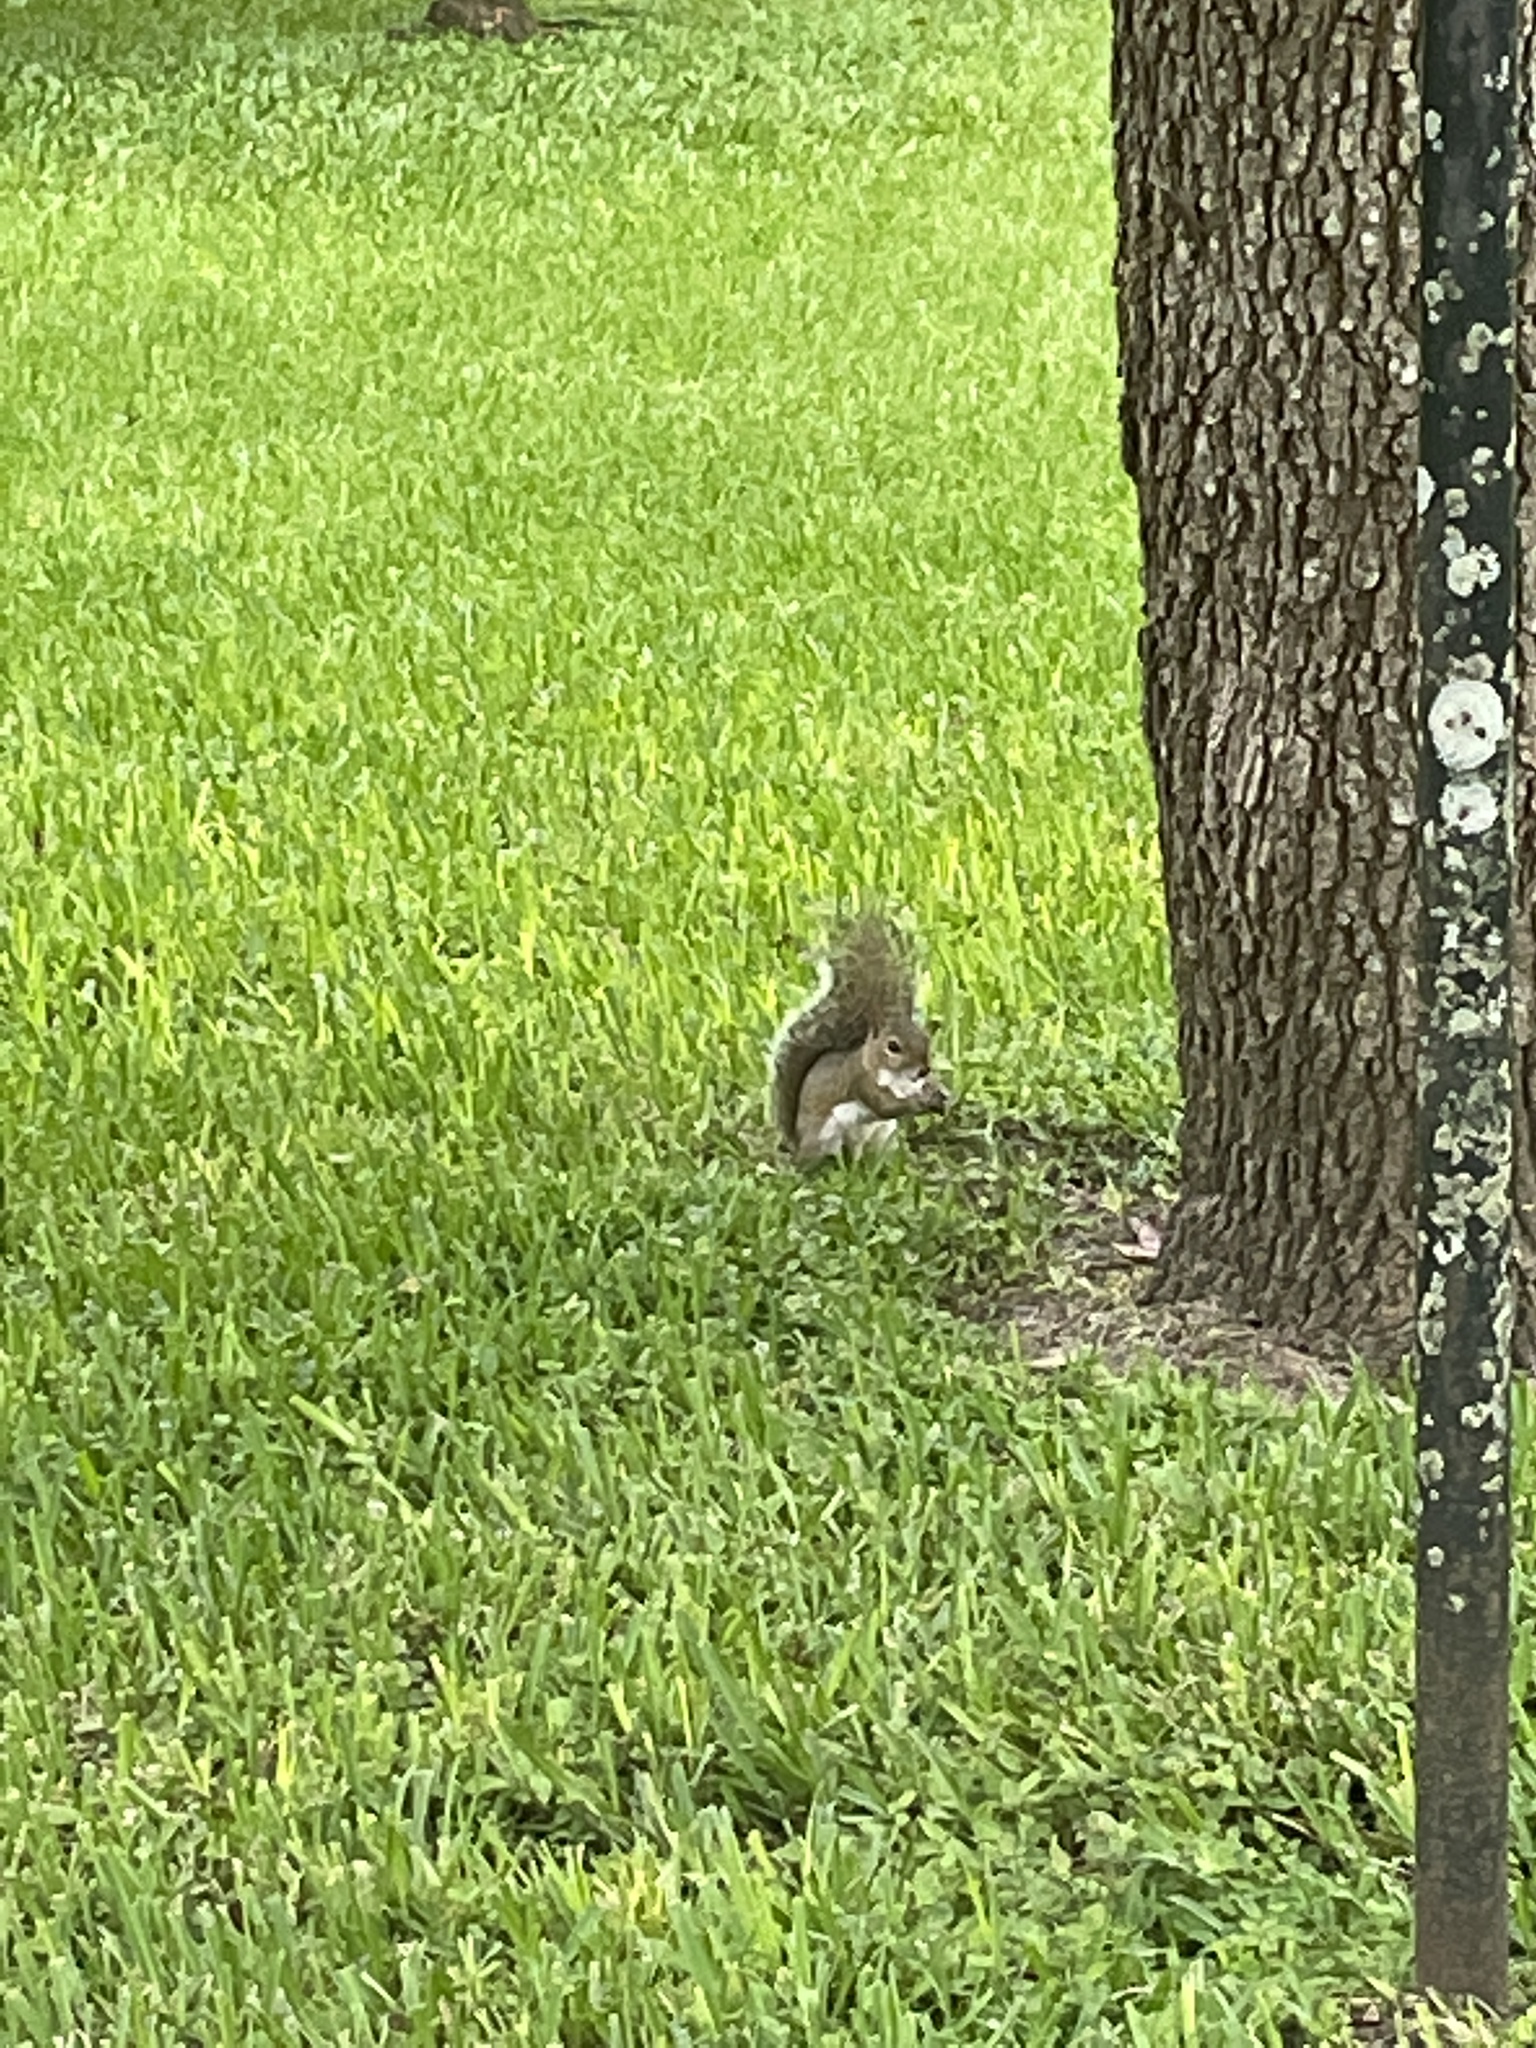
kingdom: Animalia
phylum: Chordata
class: Mammalia
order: Rodentia
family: Sciuridae
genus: Sciurus
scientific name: Sciurus carolinensis
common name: Eastern gray squirrel
